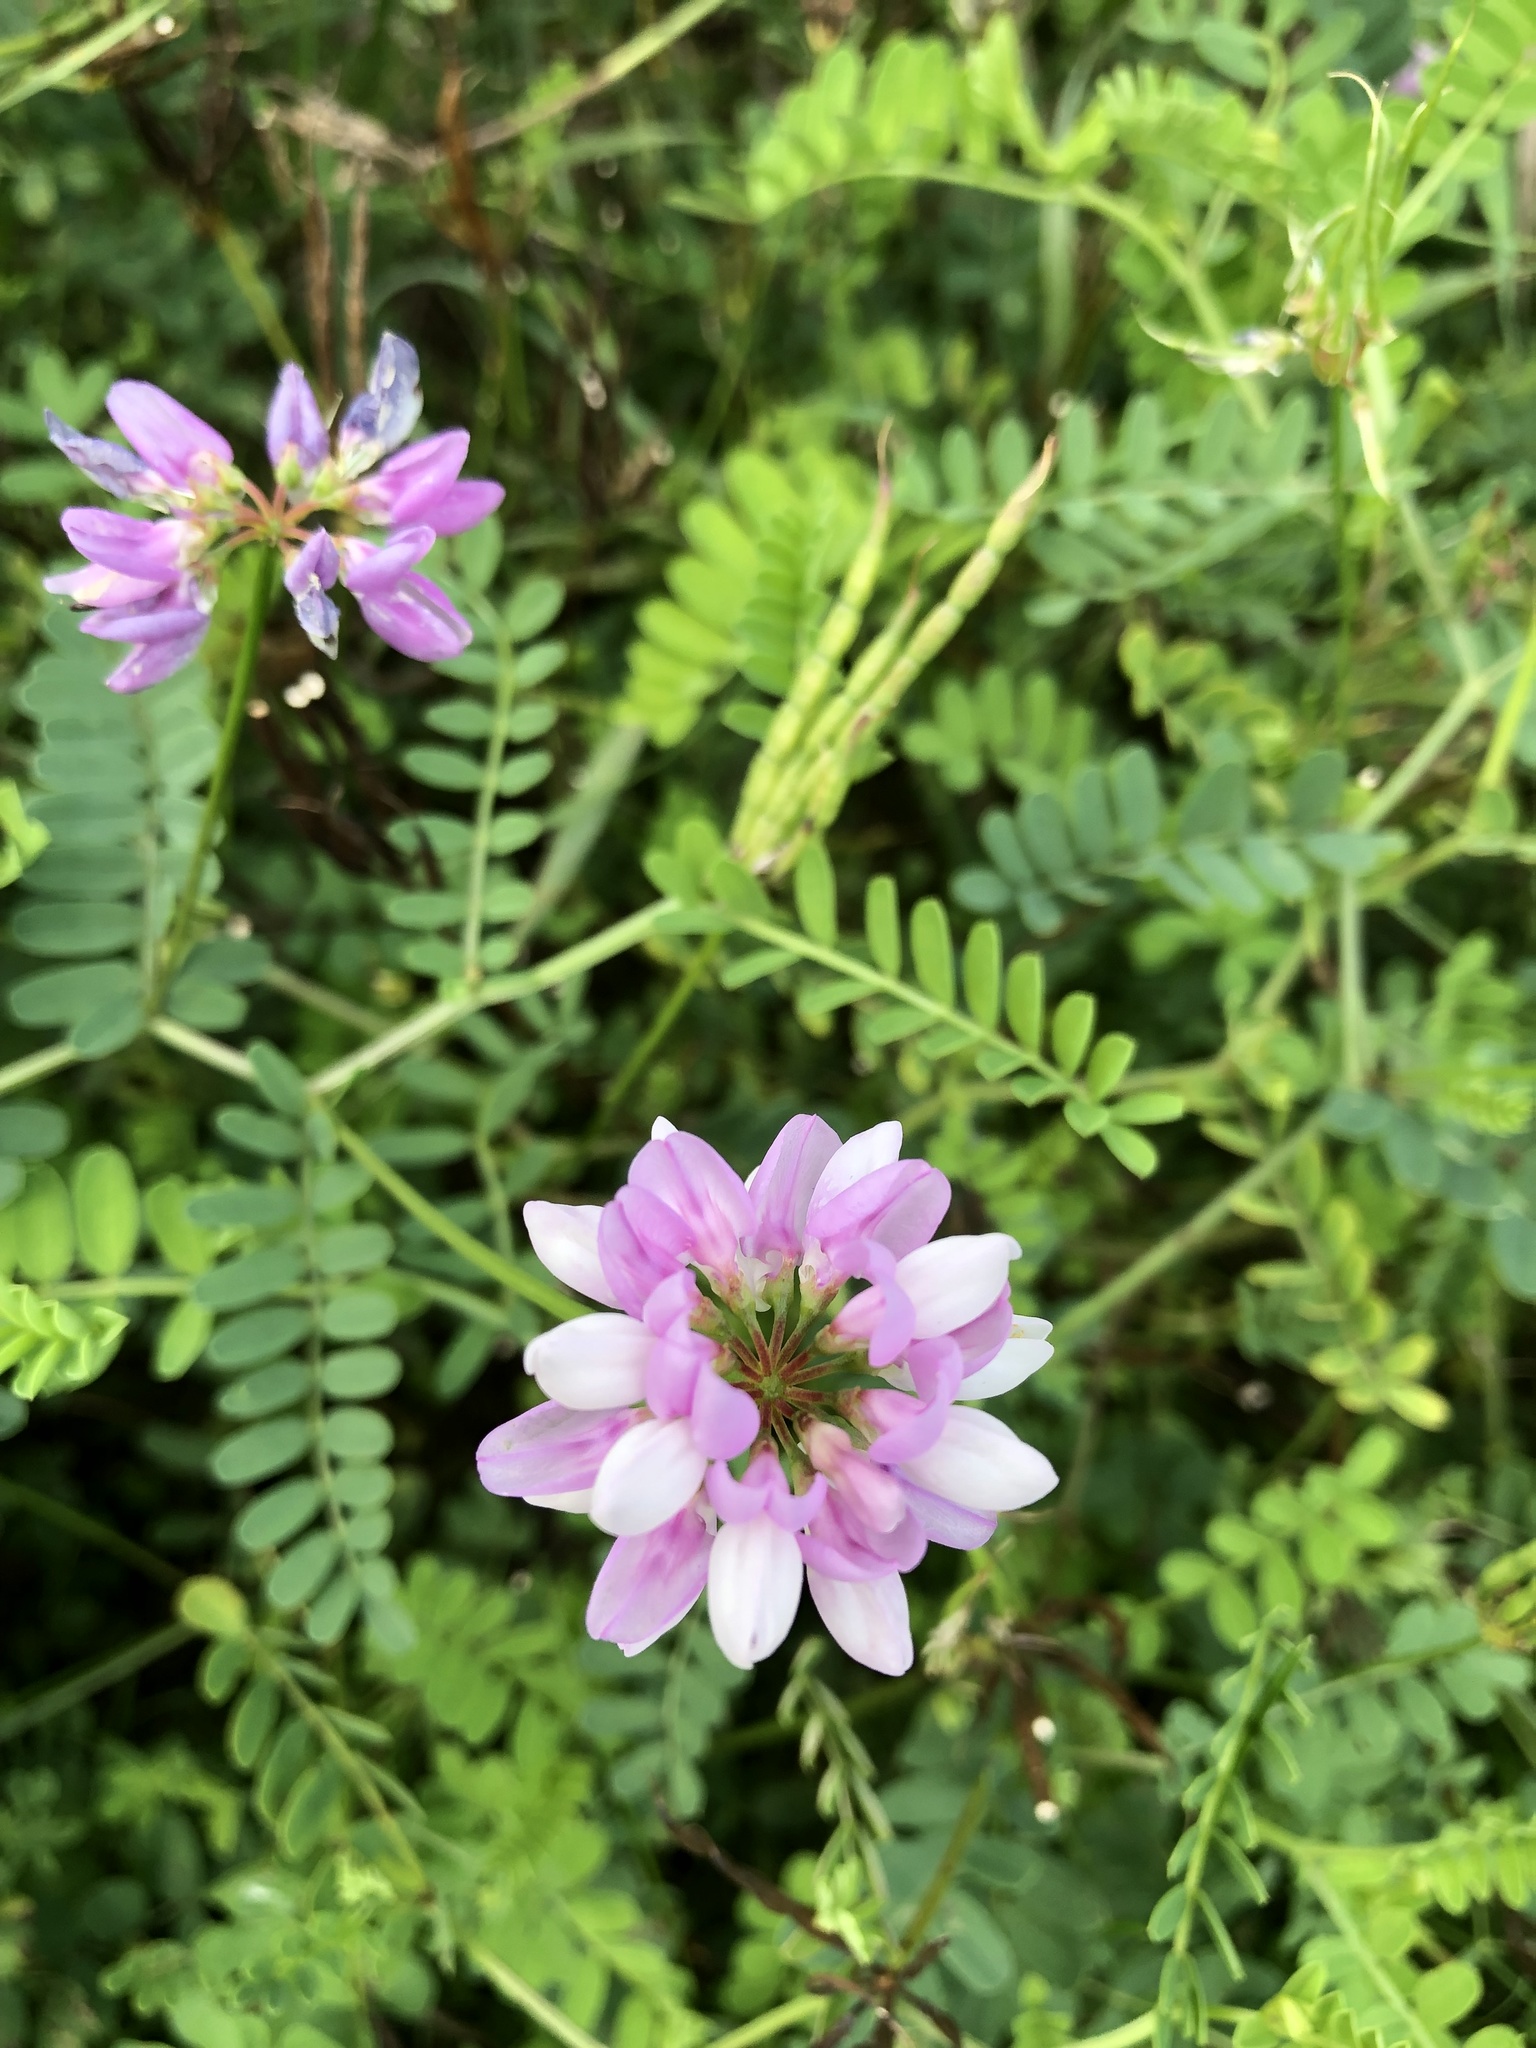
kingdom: Plantae
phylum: Tracheophyta
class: Magnoliopsida
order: Fabales
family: Fabaceae
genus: Coronilla
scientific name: Coronilla varia
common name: Crownvetch
